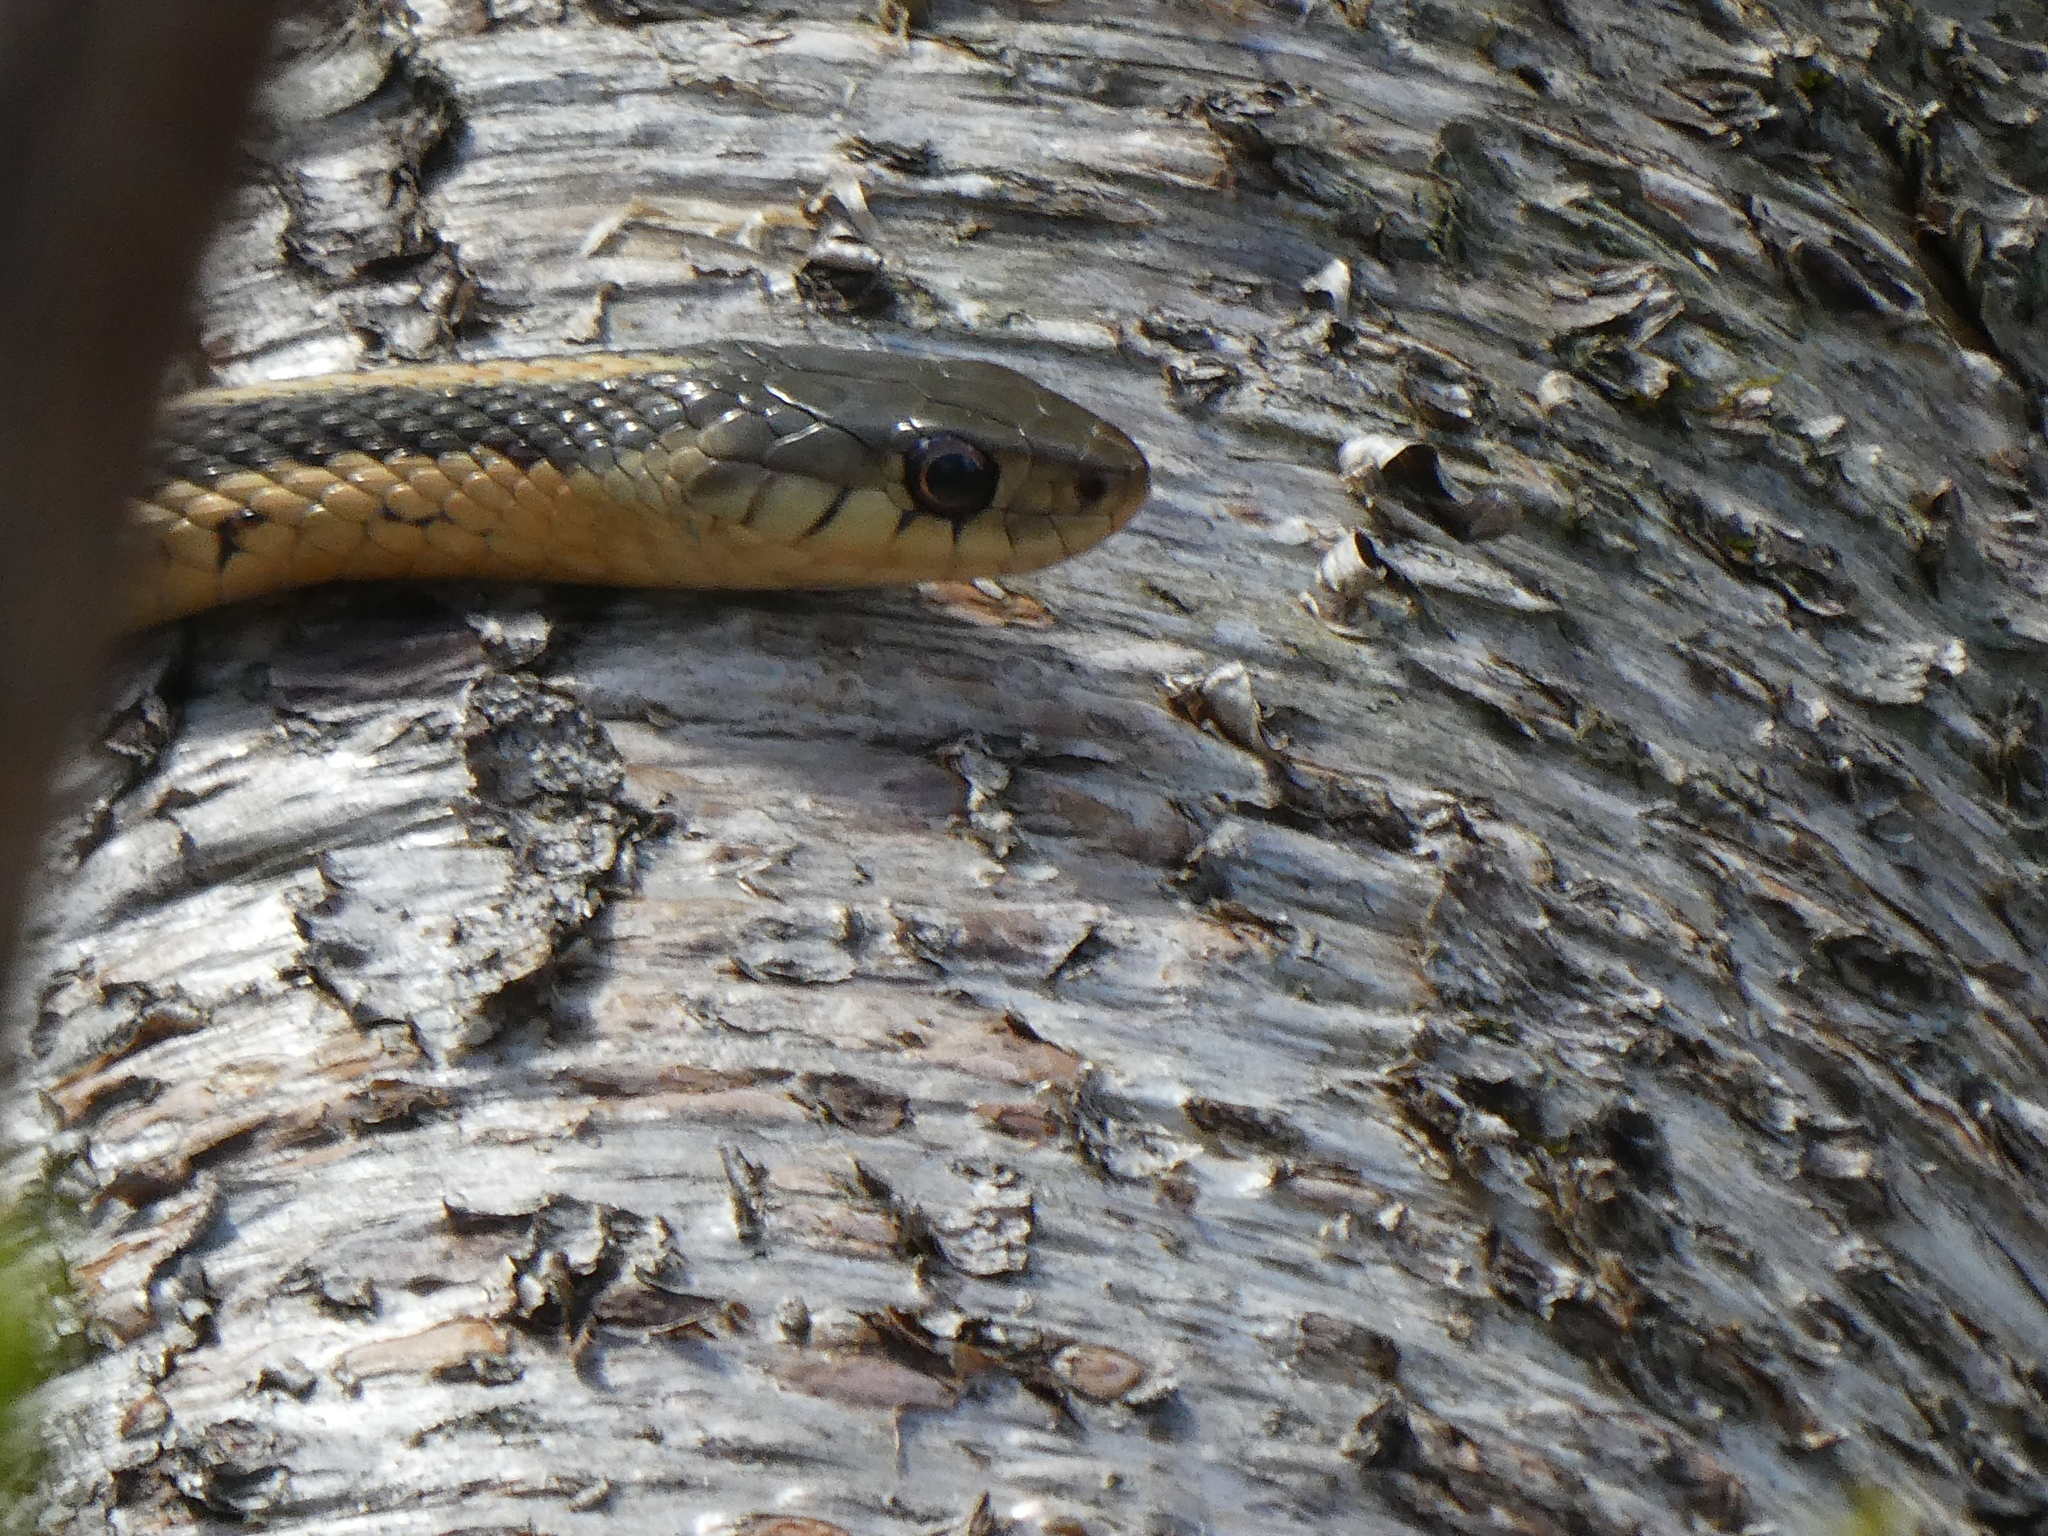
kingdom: Animalia
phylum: Chordata
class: Squamata
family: Colubridae
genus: Thamnophis
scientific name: Thamnophis sirtalis
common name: Common garter snake
